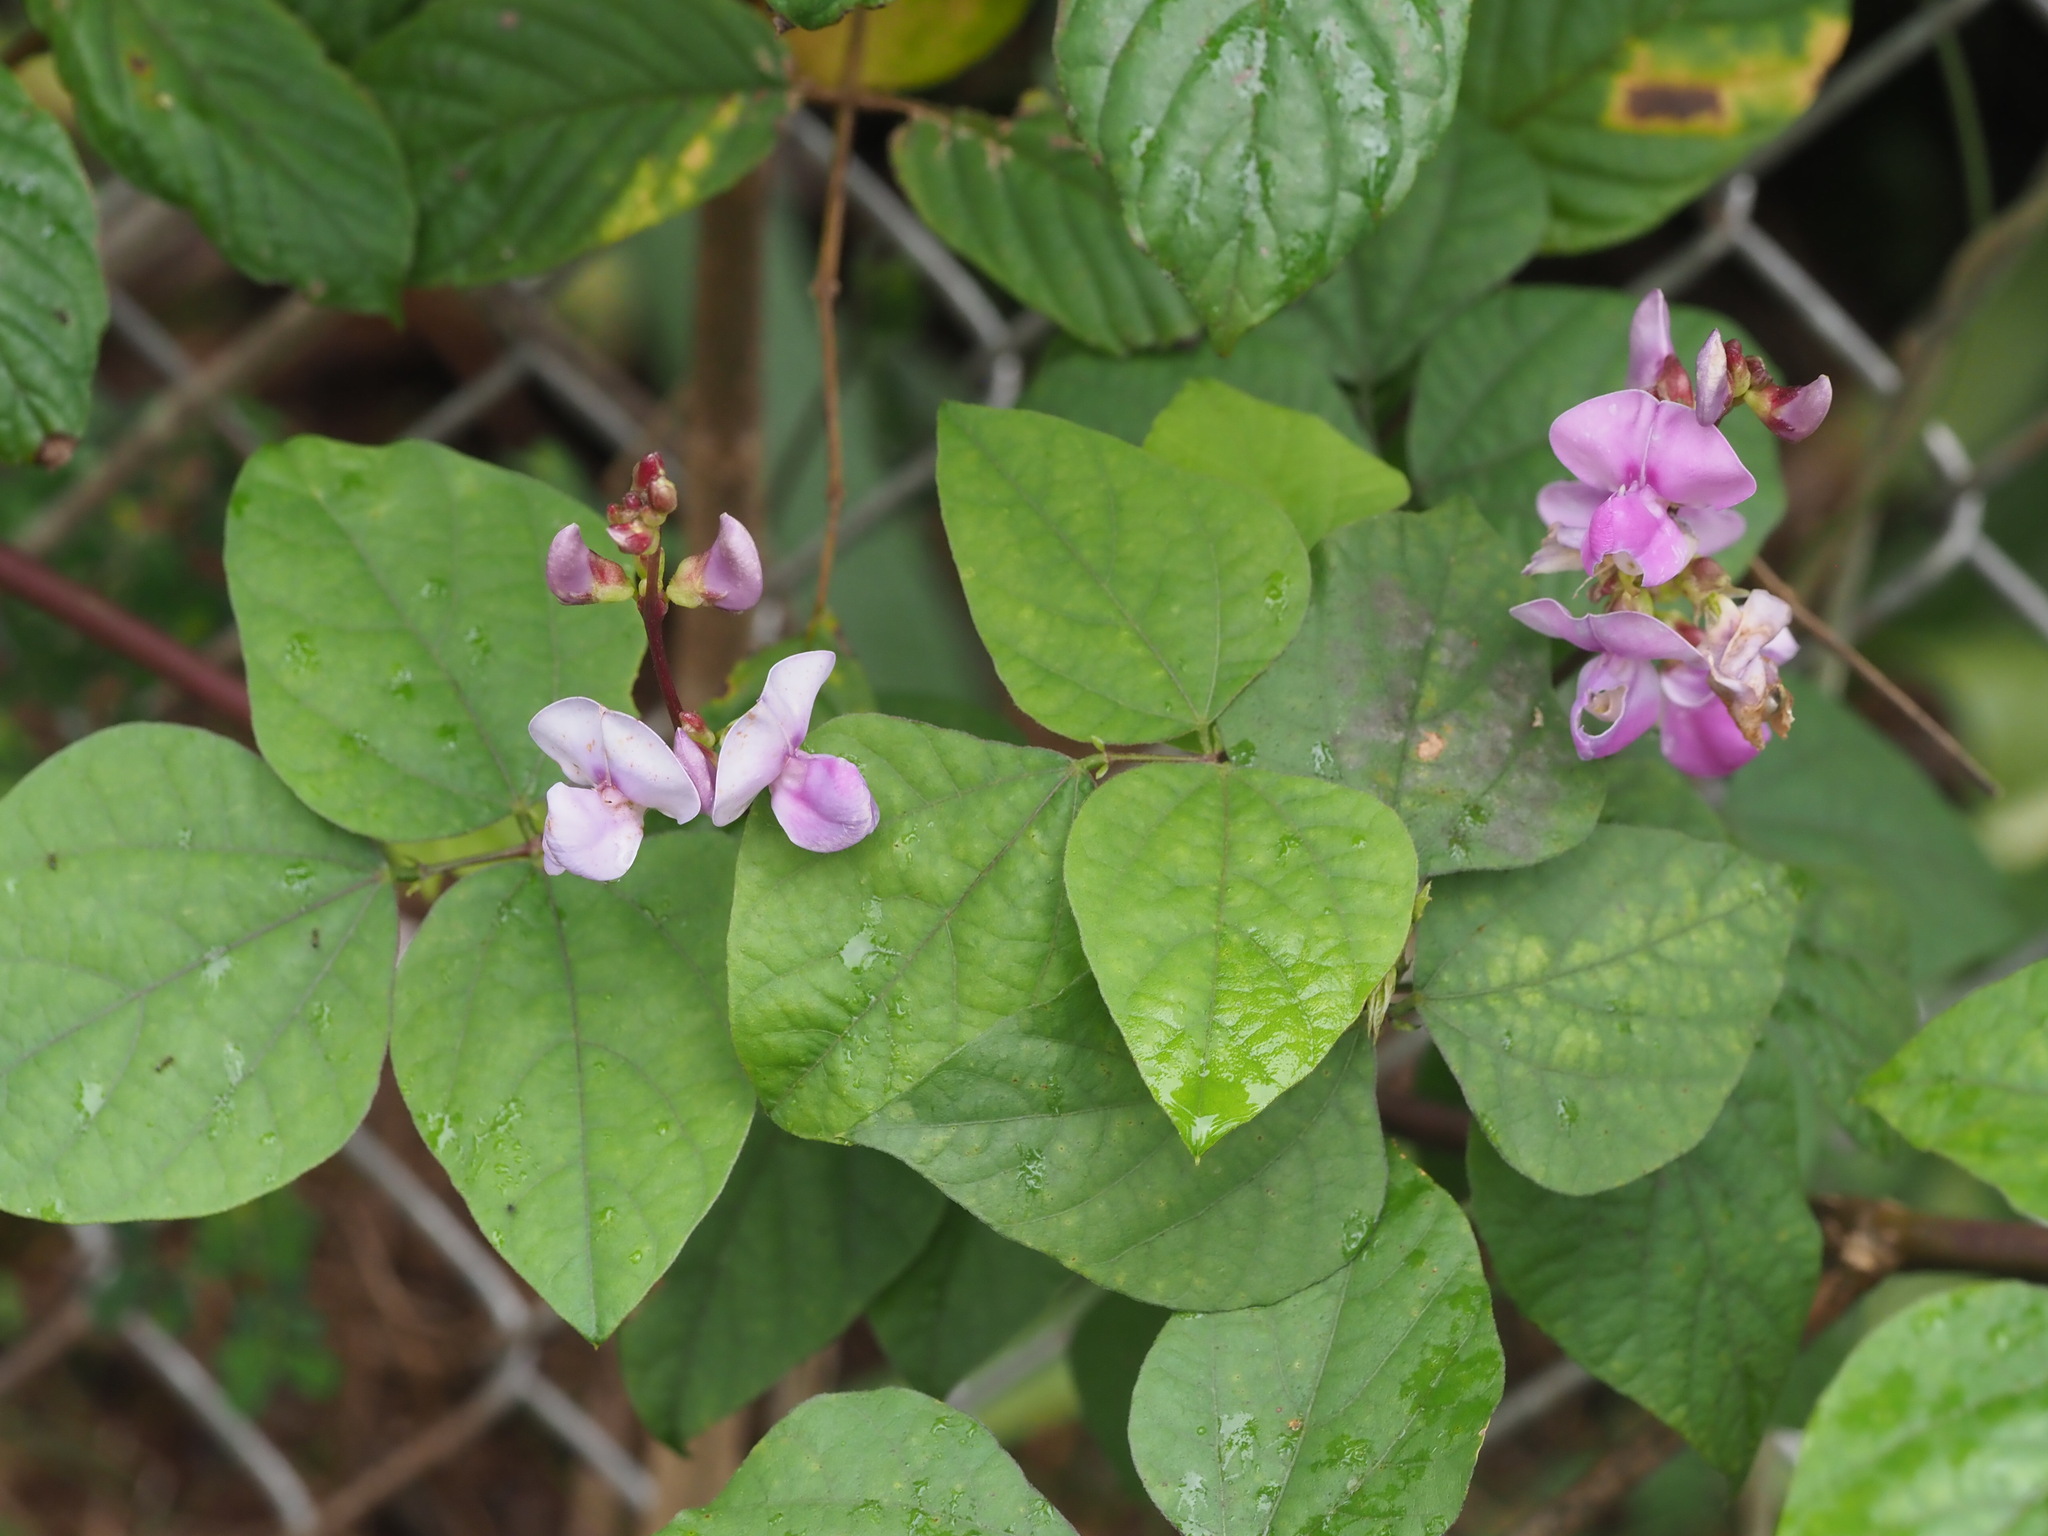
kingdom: Plantae
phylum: Tracheophyta
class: Magnoliopsida
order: Fabales
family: Fabaceae
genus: Lablab
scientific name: Lablab purpureus
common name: Lablab-bean
